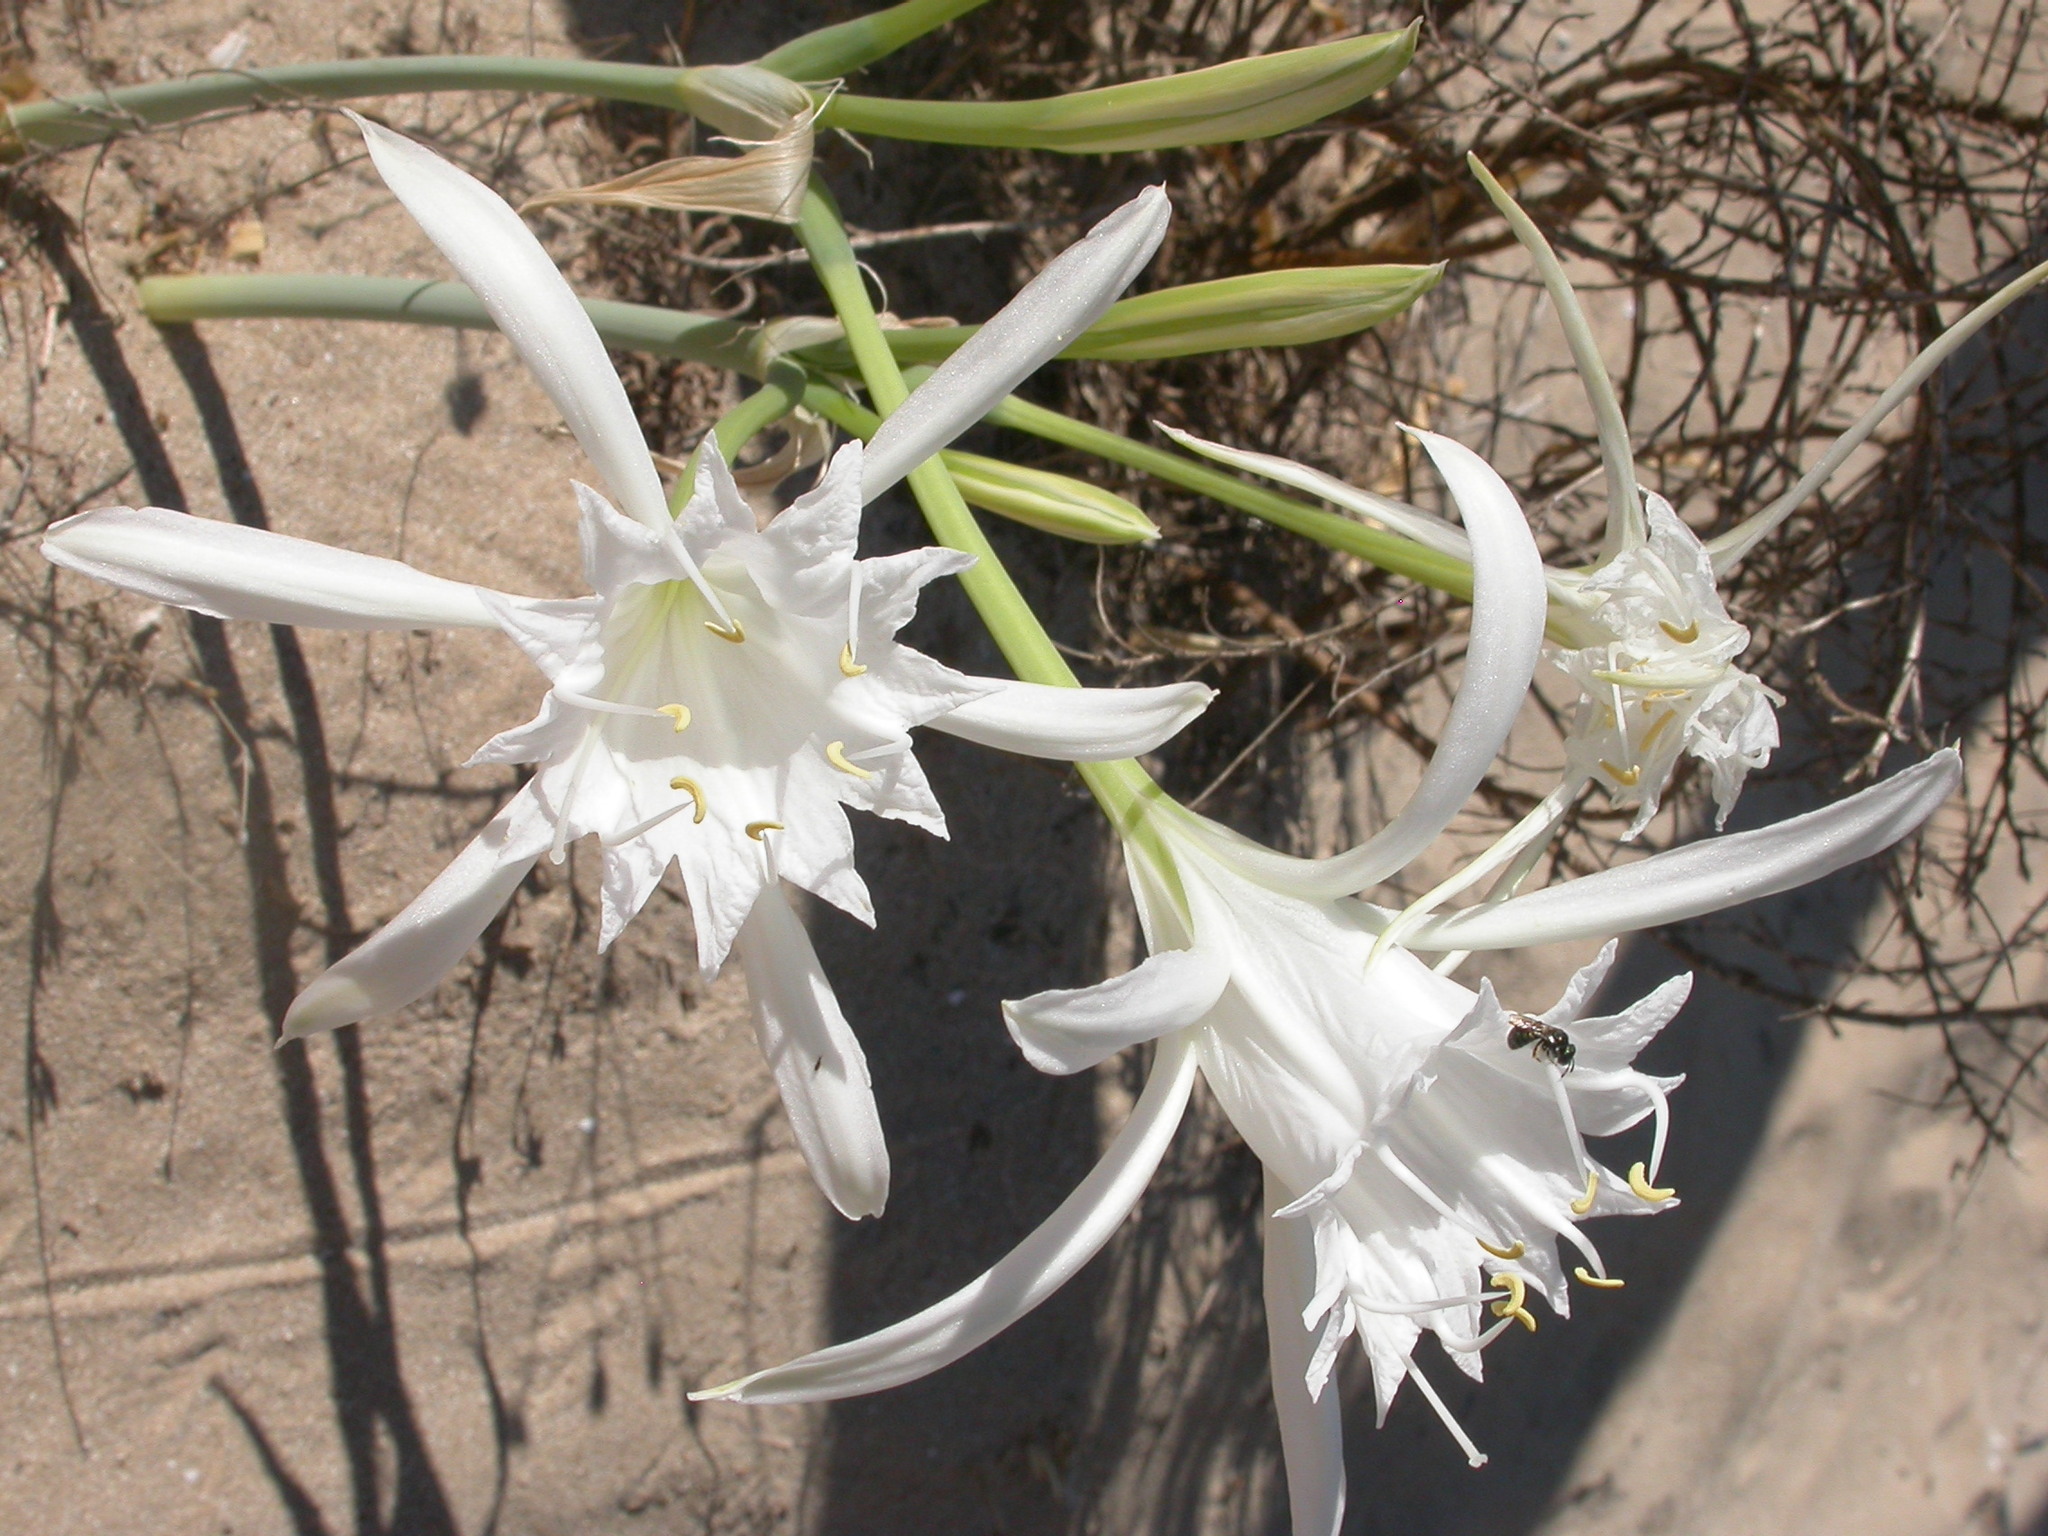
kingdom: Plantae
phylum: Tracheophyta
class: Liliopsida
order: Asparagales
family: Amaryllidaceae
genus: Pancratium
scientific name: Pancratium maritimum
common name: Sea-daffodil
